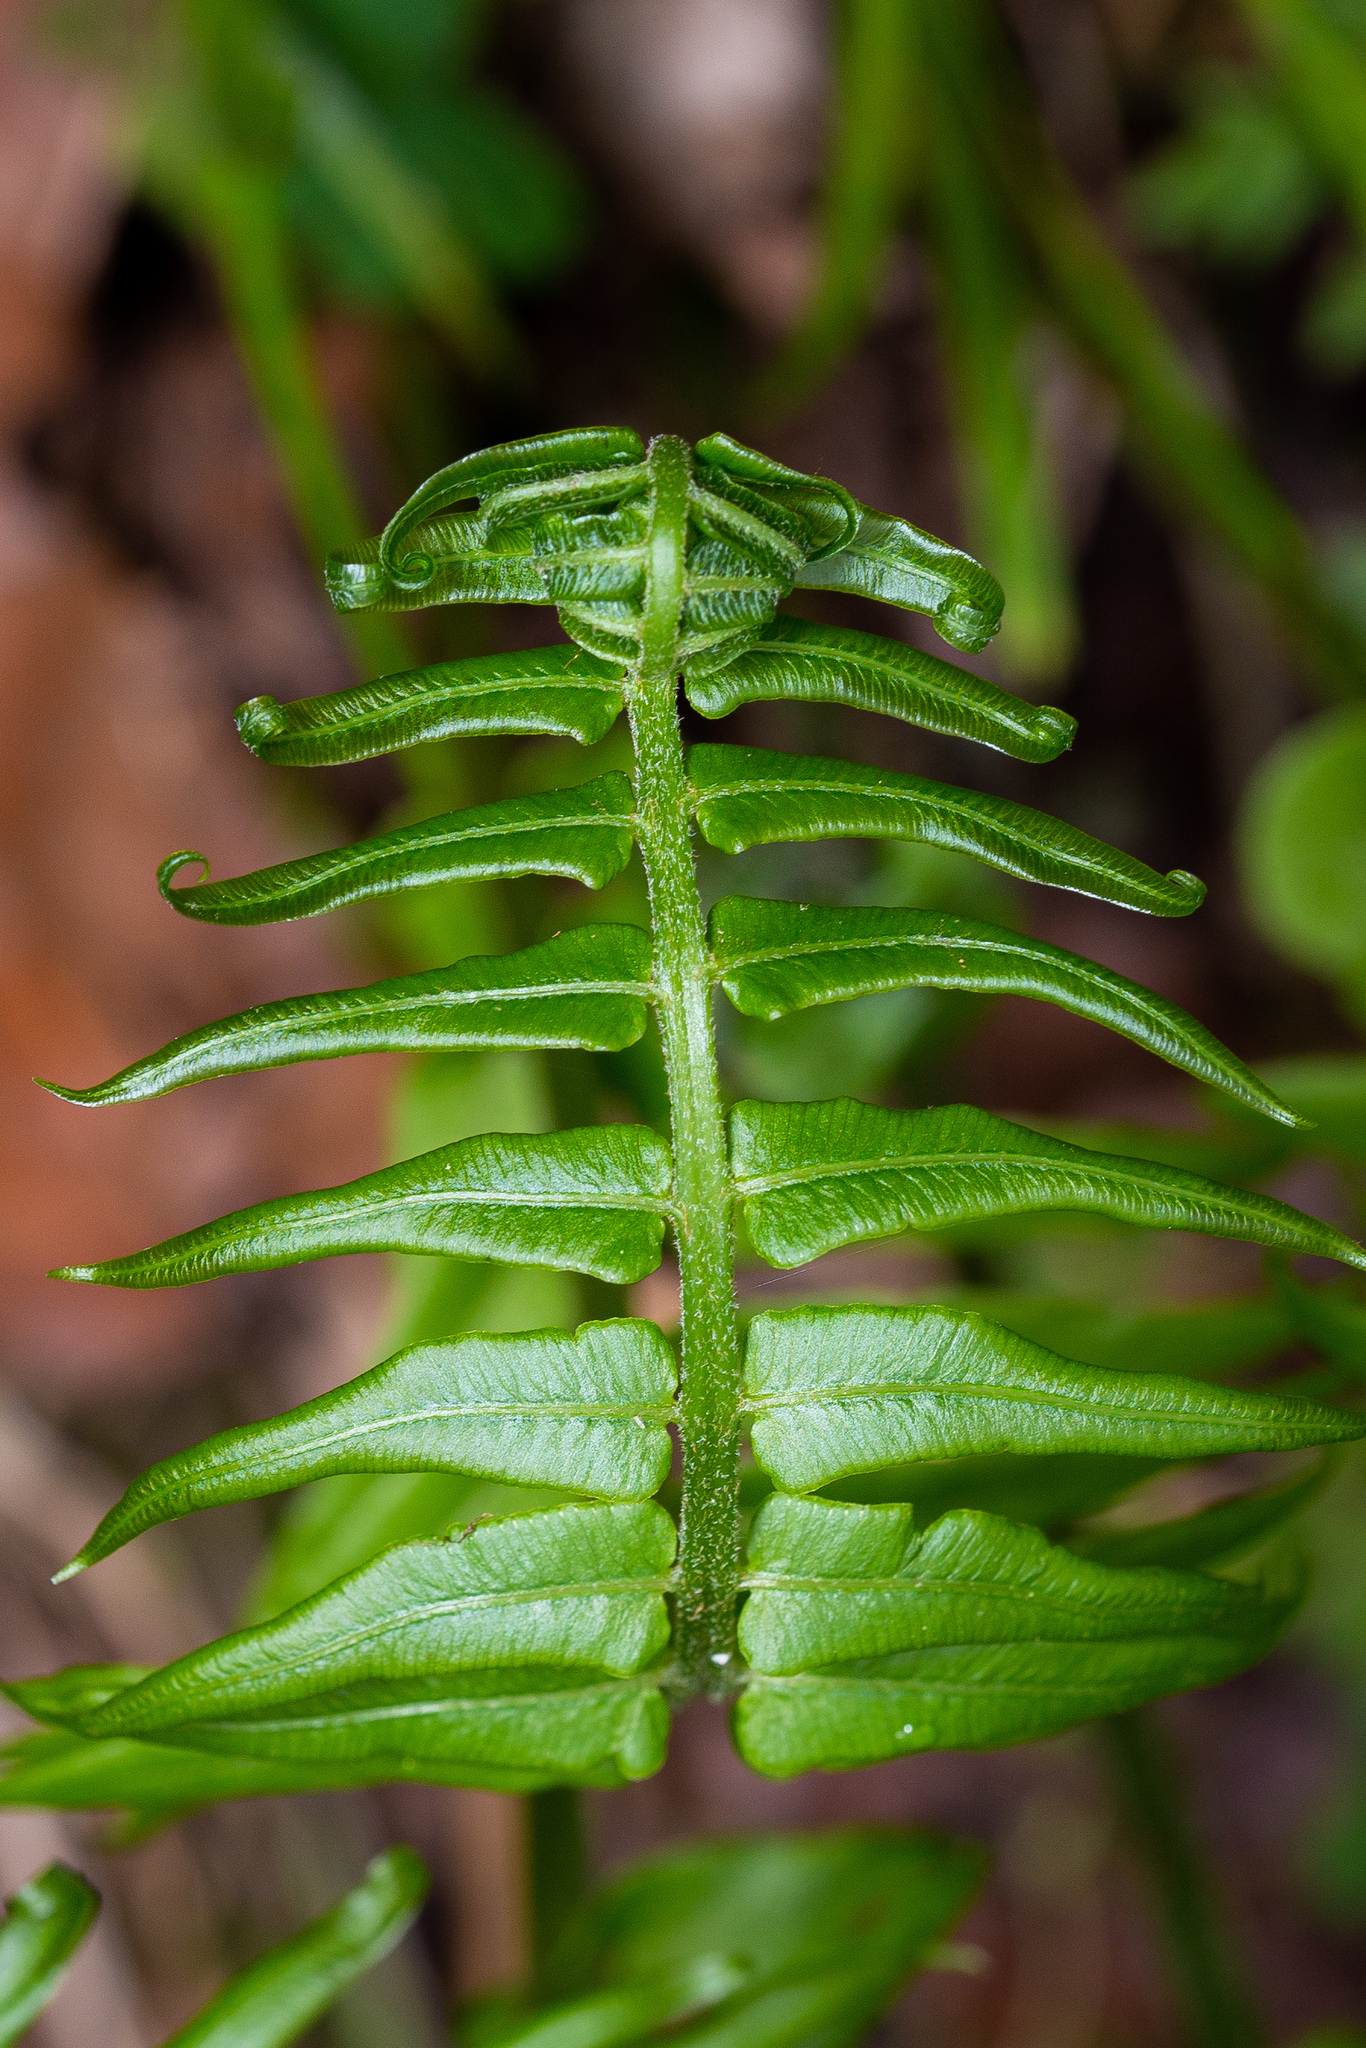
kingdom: Plantae
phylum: Tracheophyta
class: Polypodiopsida
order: Polypodiales
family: Diplaziopsidaceae
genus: Homalosorus
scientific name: Homalosorus pycnocarpos
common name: Glade fern
